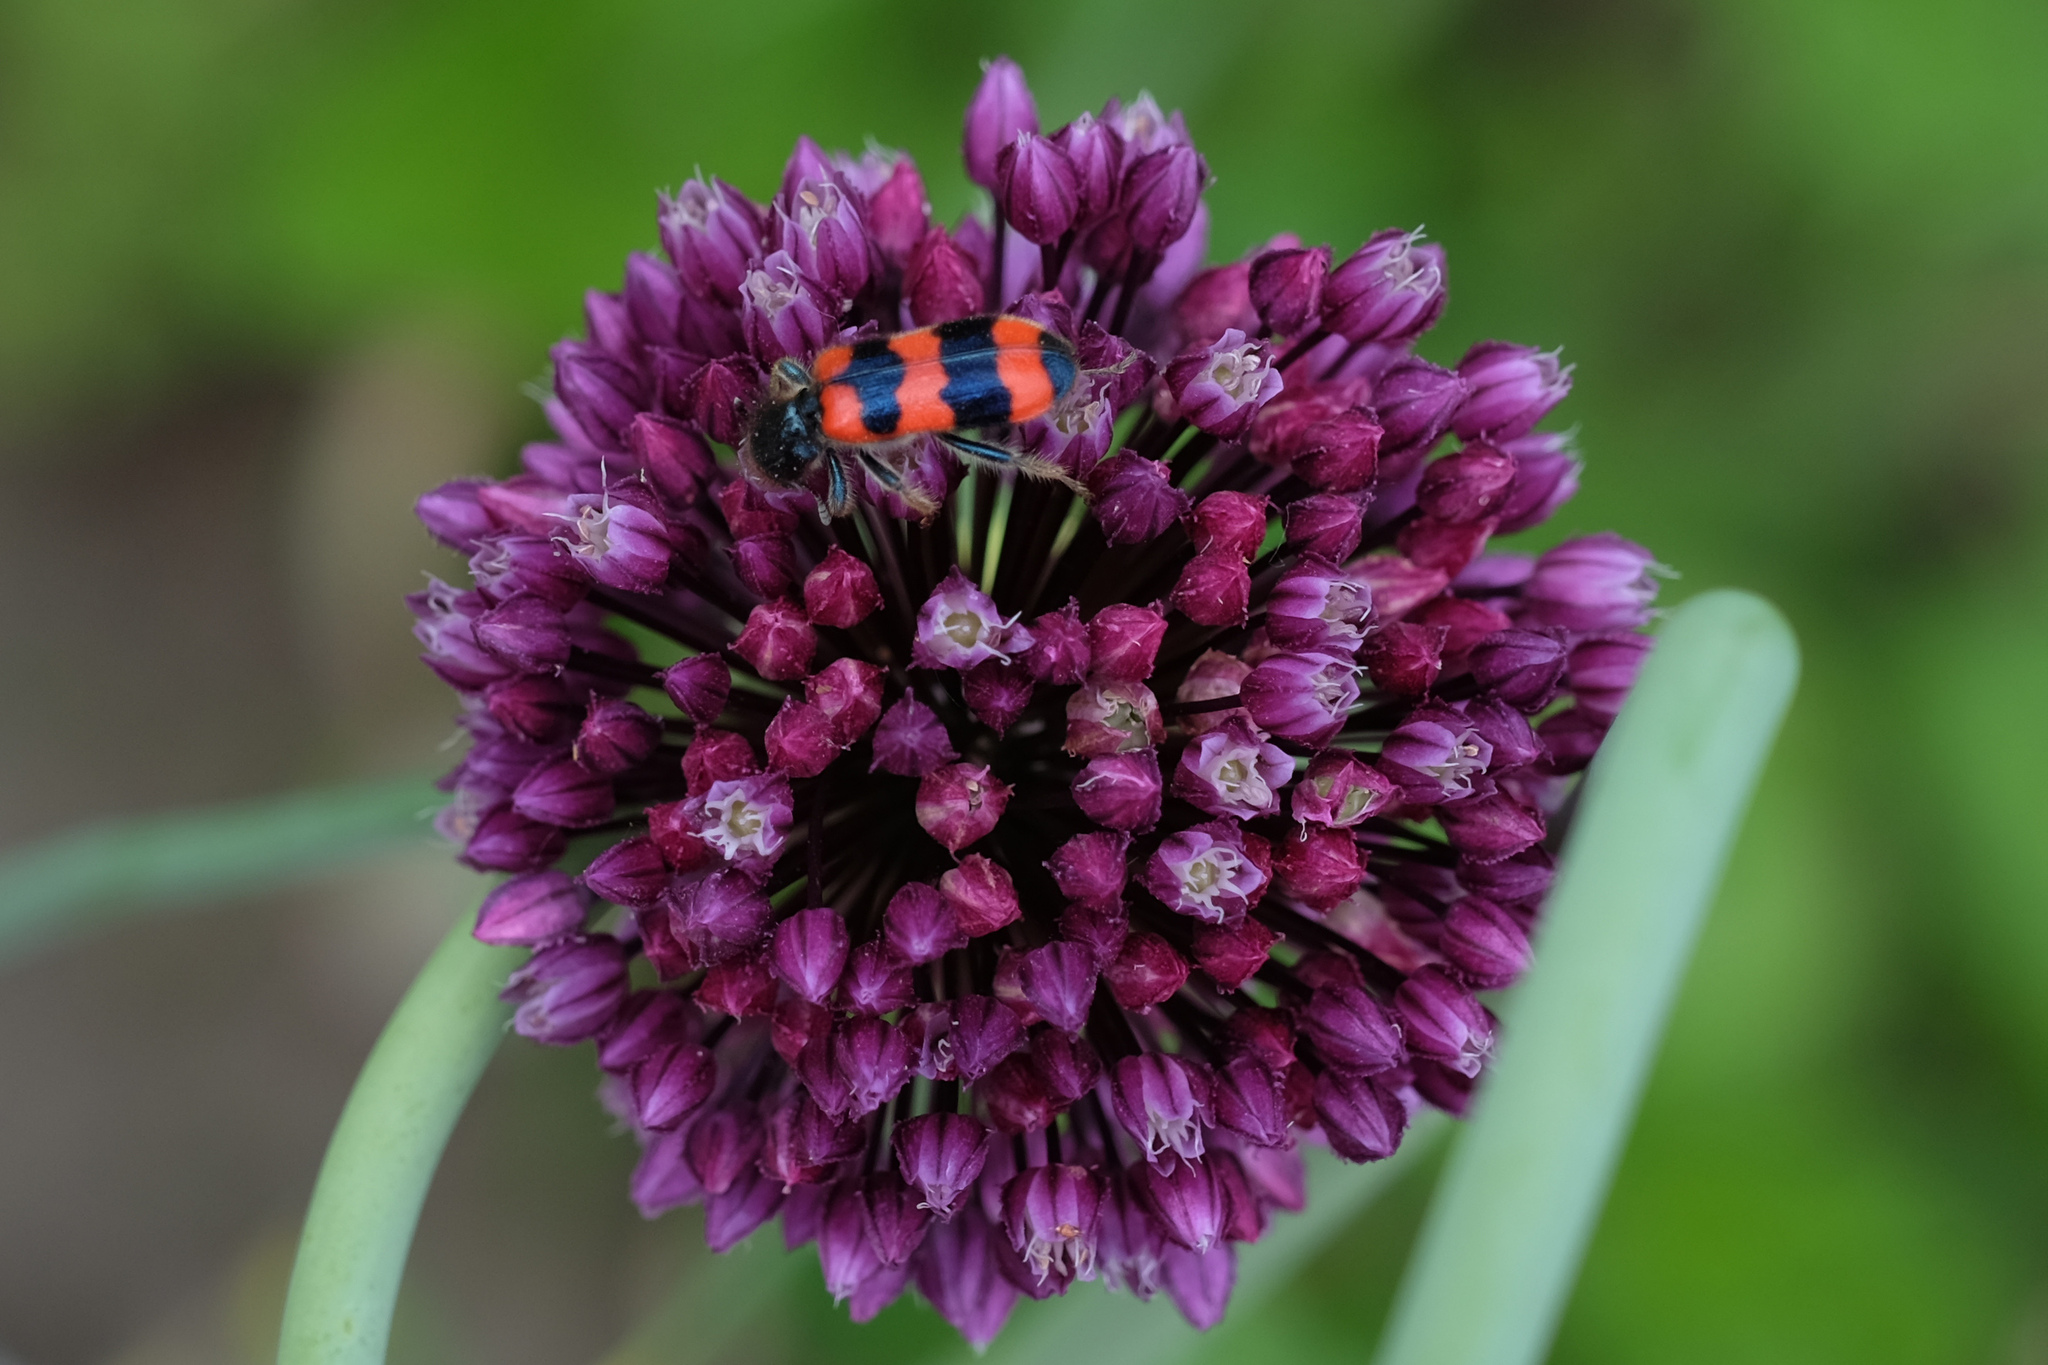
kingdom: Animalia
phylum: Arthropoda
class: Insecta
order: Coleoptera
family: Cleridae
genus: Trichodes
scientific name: Trichodes apiarius
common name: Bee-eating beetle
